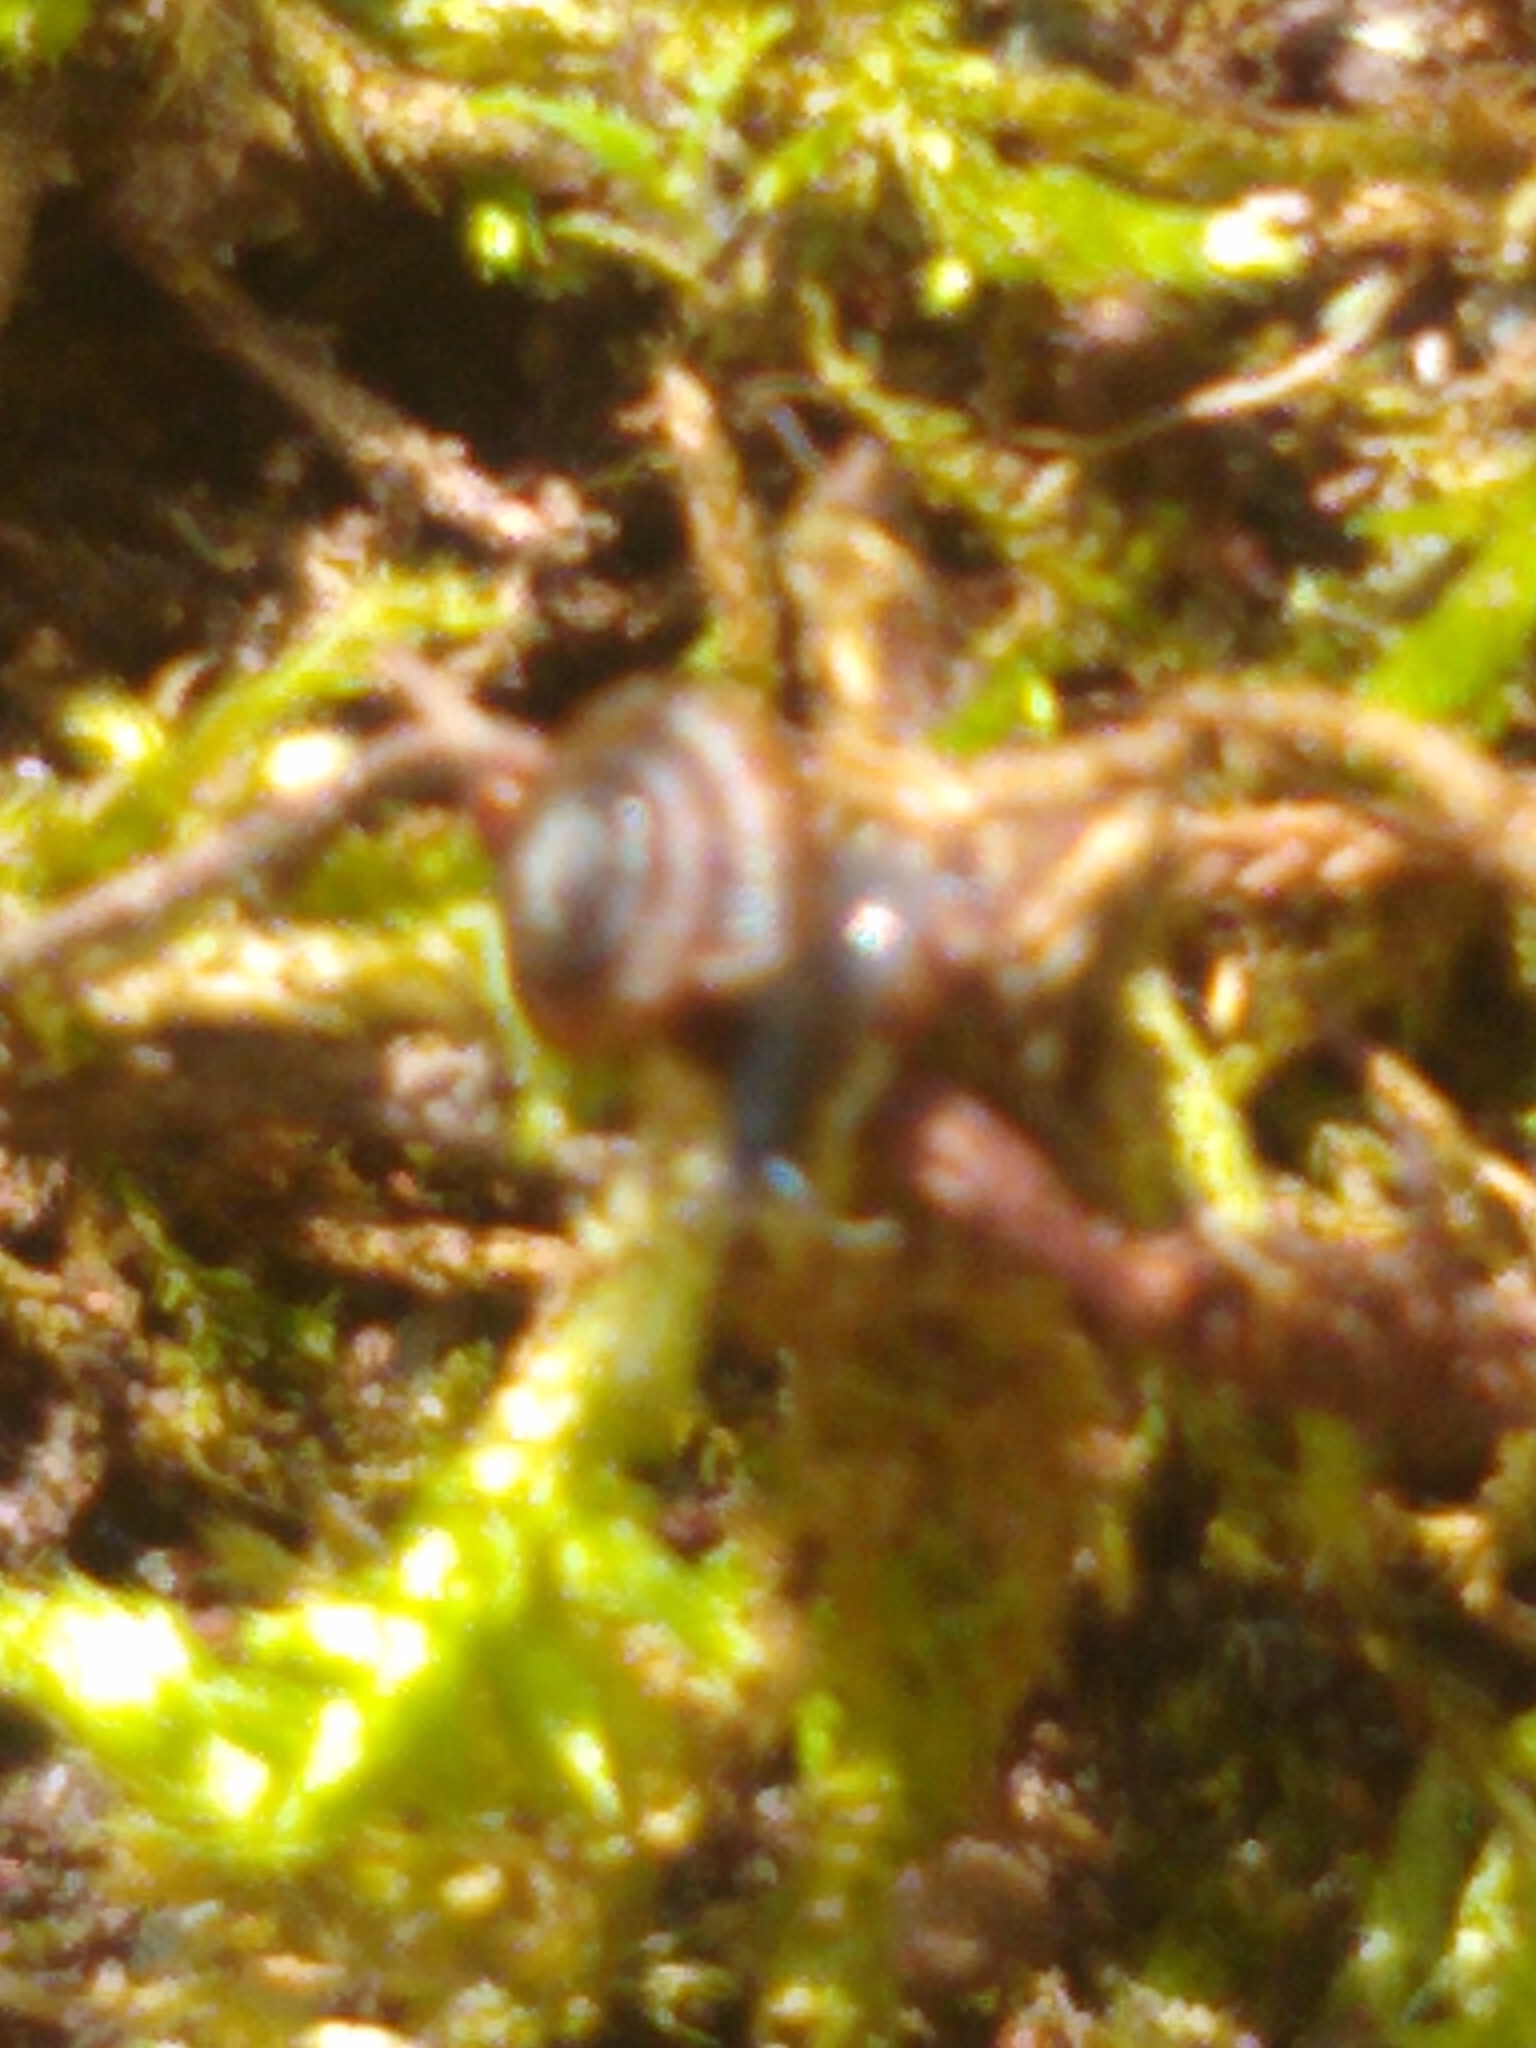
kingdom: Animalia
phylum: Mollusca
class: Gastropoda
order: Stylommatophora
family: Discidae
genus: Discus
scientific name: Discus rotundatus
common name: Rounded snail
